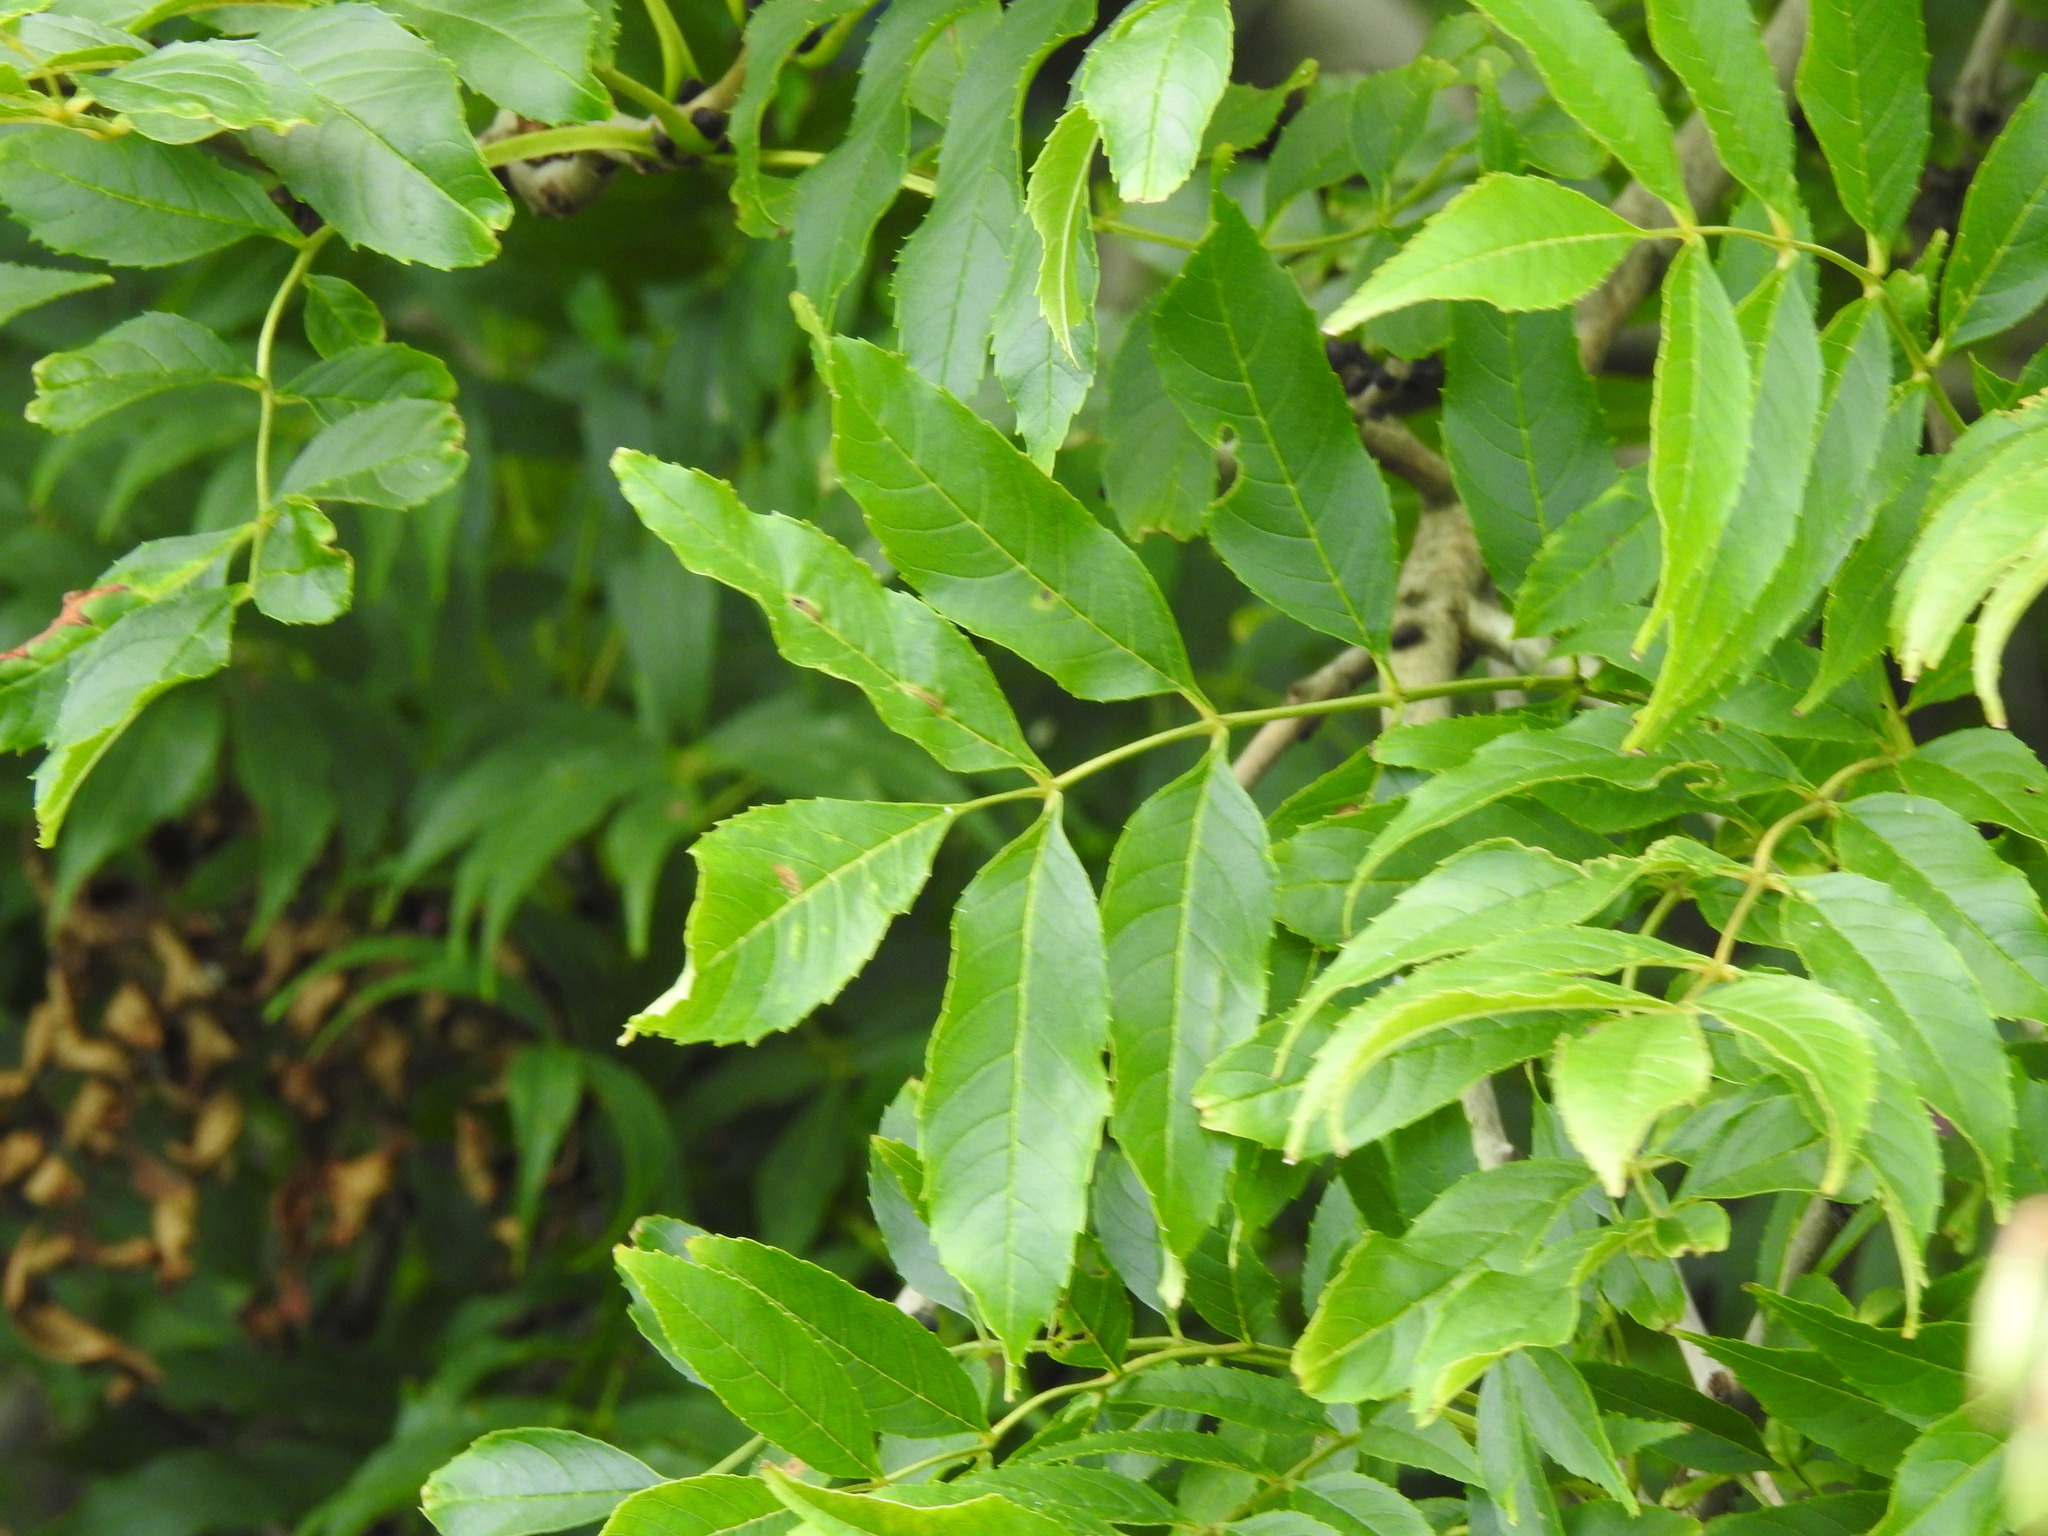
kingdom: Plantae
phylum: Tracheophyta
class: Magnoliopsida
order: Lamiales
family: Oleaceae
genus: Fraxinus
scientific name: Fraxinus excelsior
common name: European ash
